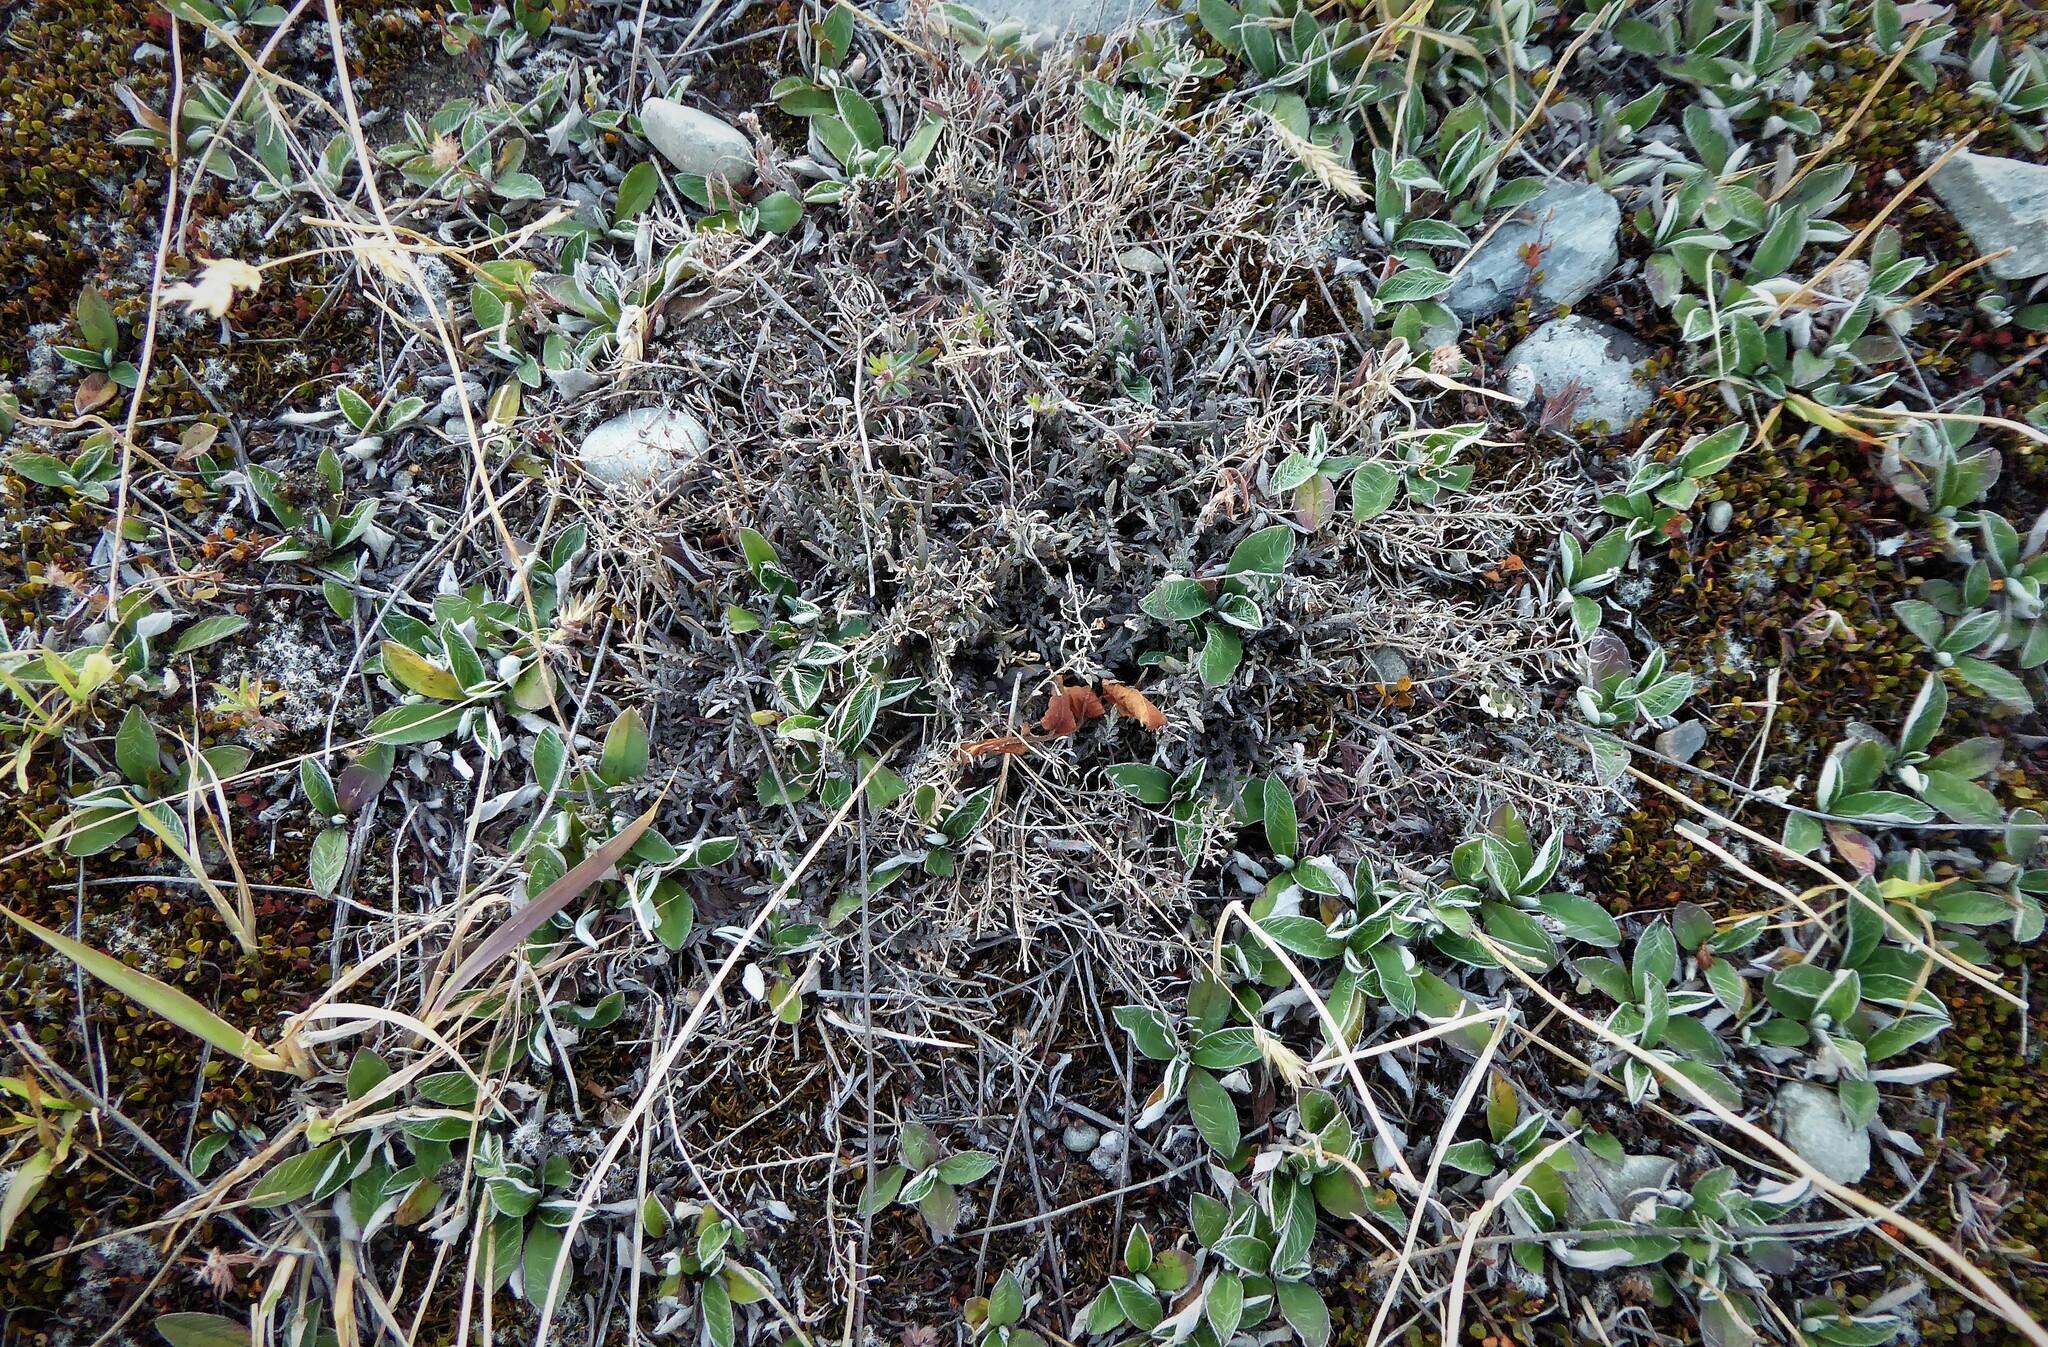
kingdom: Plantae
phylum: Tracheophyta
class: Magnoliopsida
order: Brassicales
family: Brassicaceae
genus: Lepidium
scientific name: Lepidium sisymbrioides
